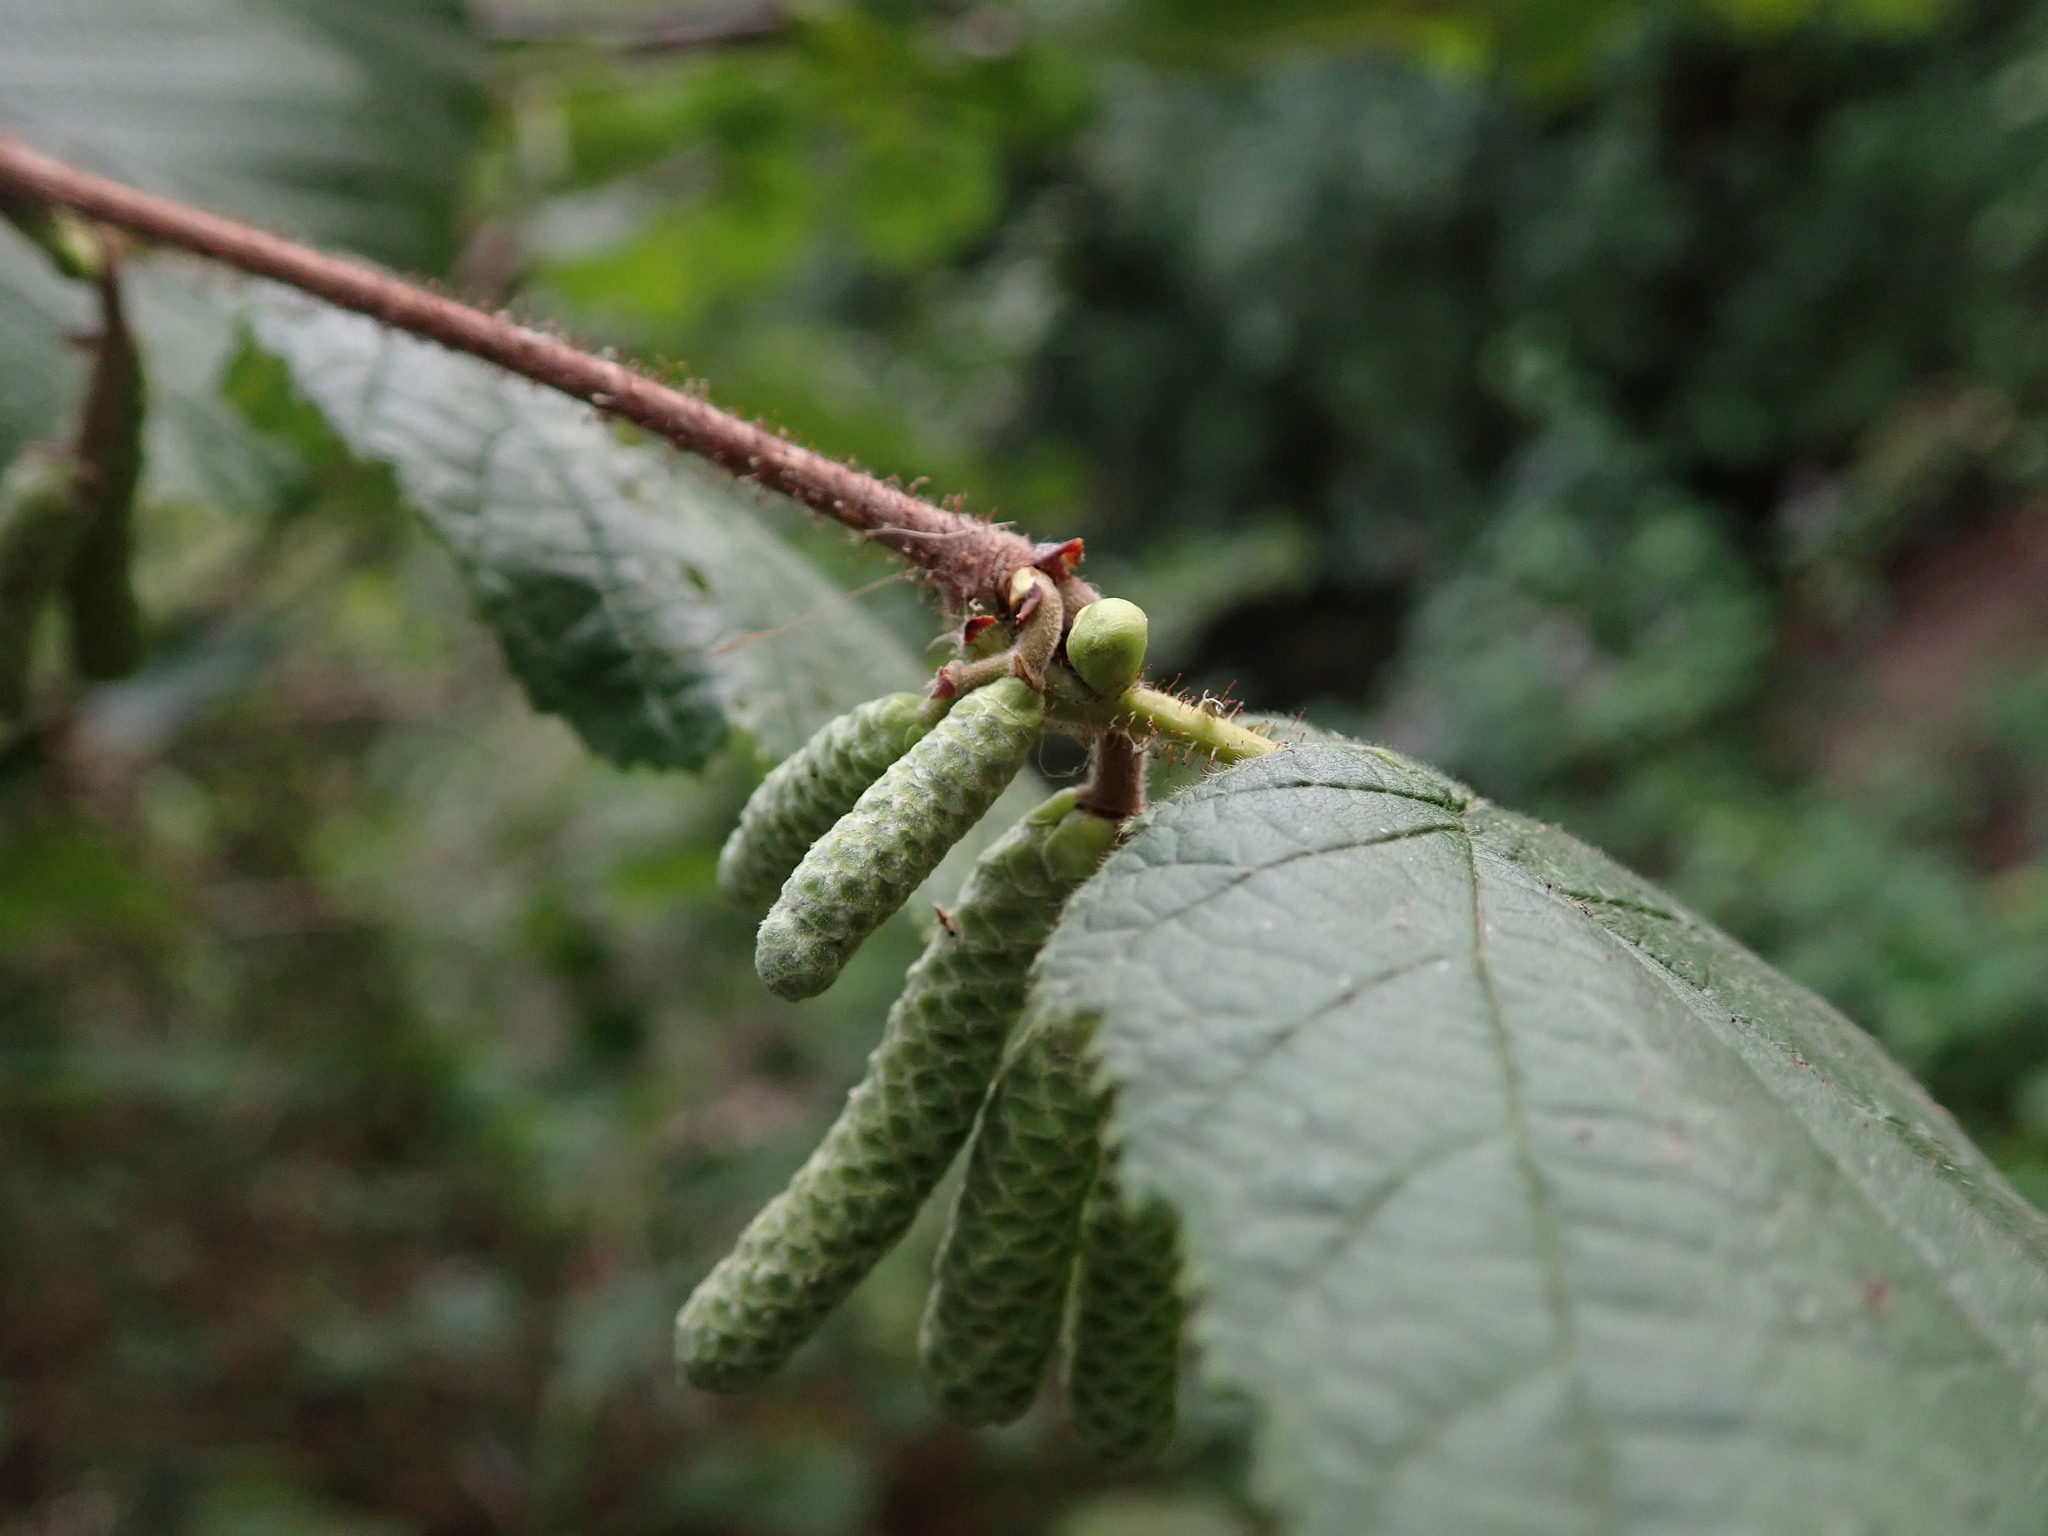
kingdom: Plantae
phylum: Tracheophyta
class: Magnoliopsida
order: Fagales
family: Betulaceae
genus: Corylus
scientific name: Corylus avellana
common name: European hazel
